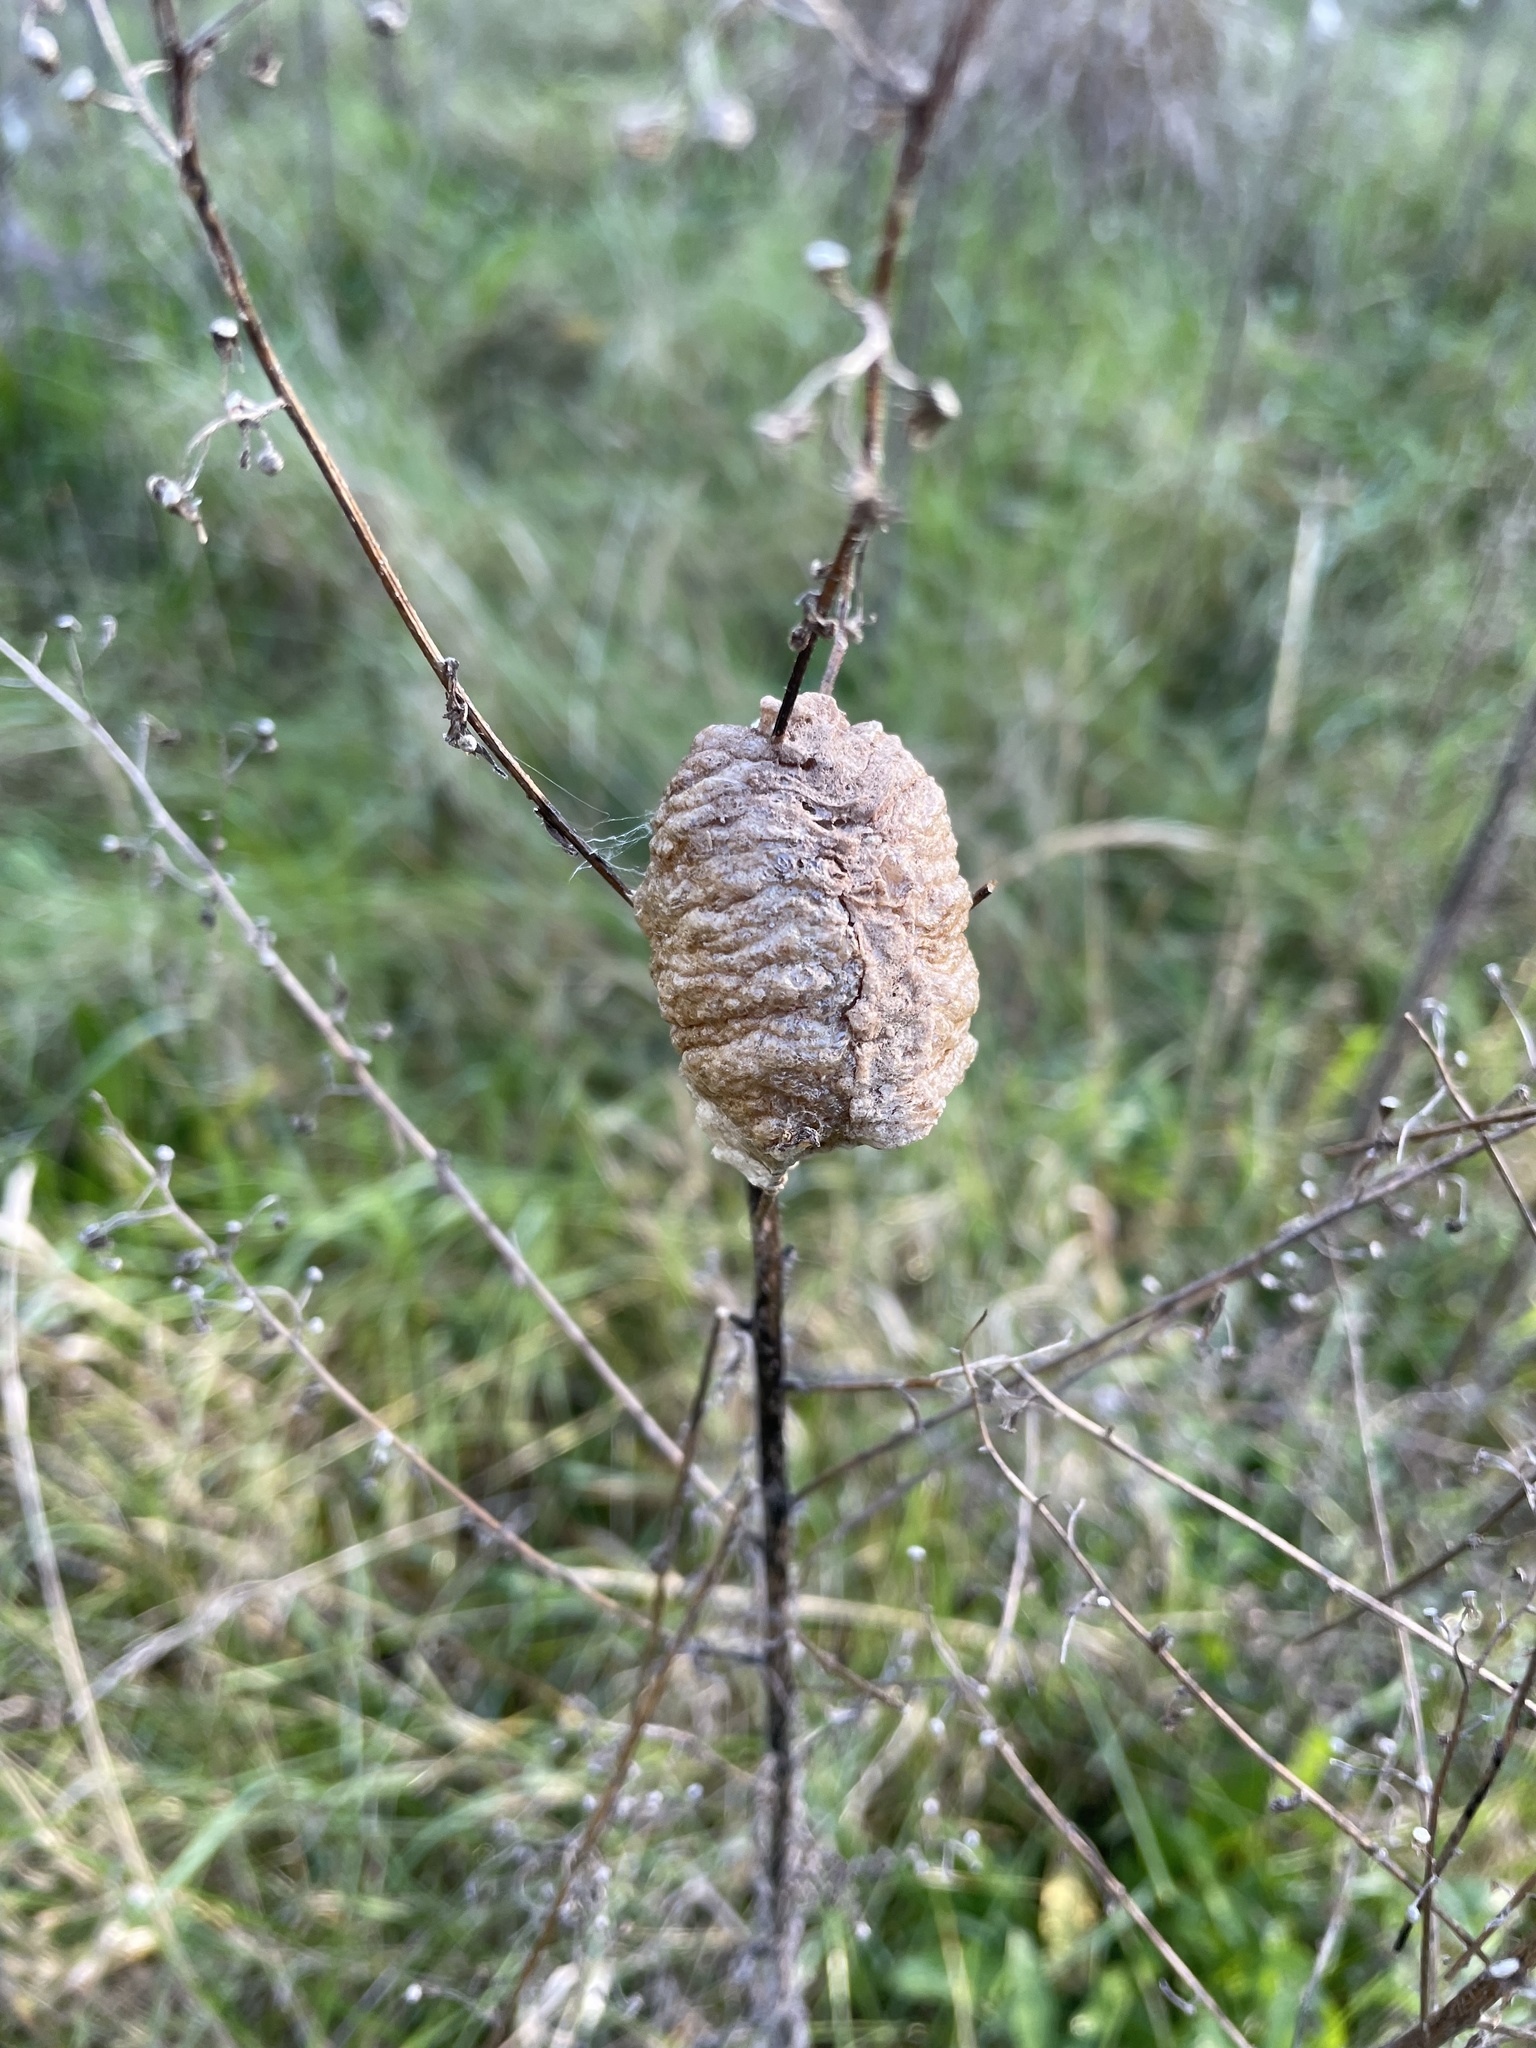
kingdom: Animalia
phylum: Arthropoda
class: Insecta
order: Mantodea
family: Mantidae
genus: Tenodera
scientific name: Tenodera sinensis
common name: Chinese mantis
